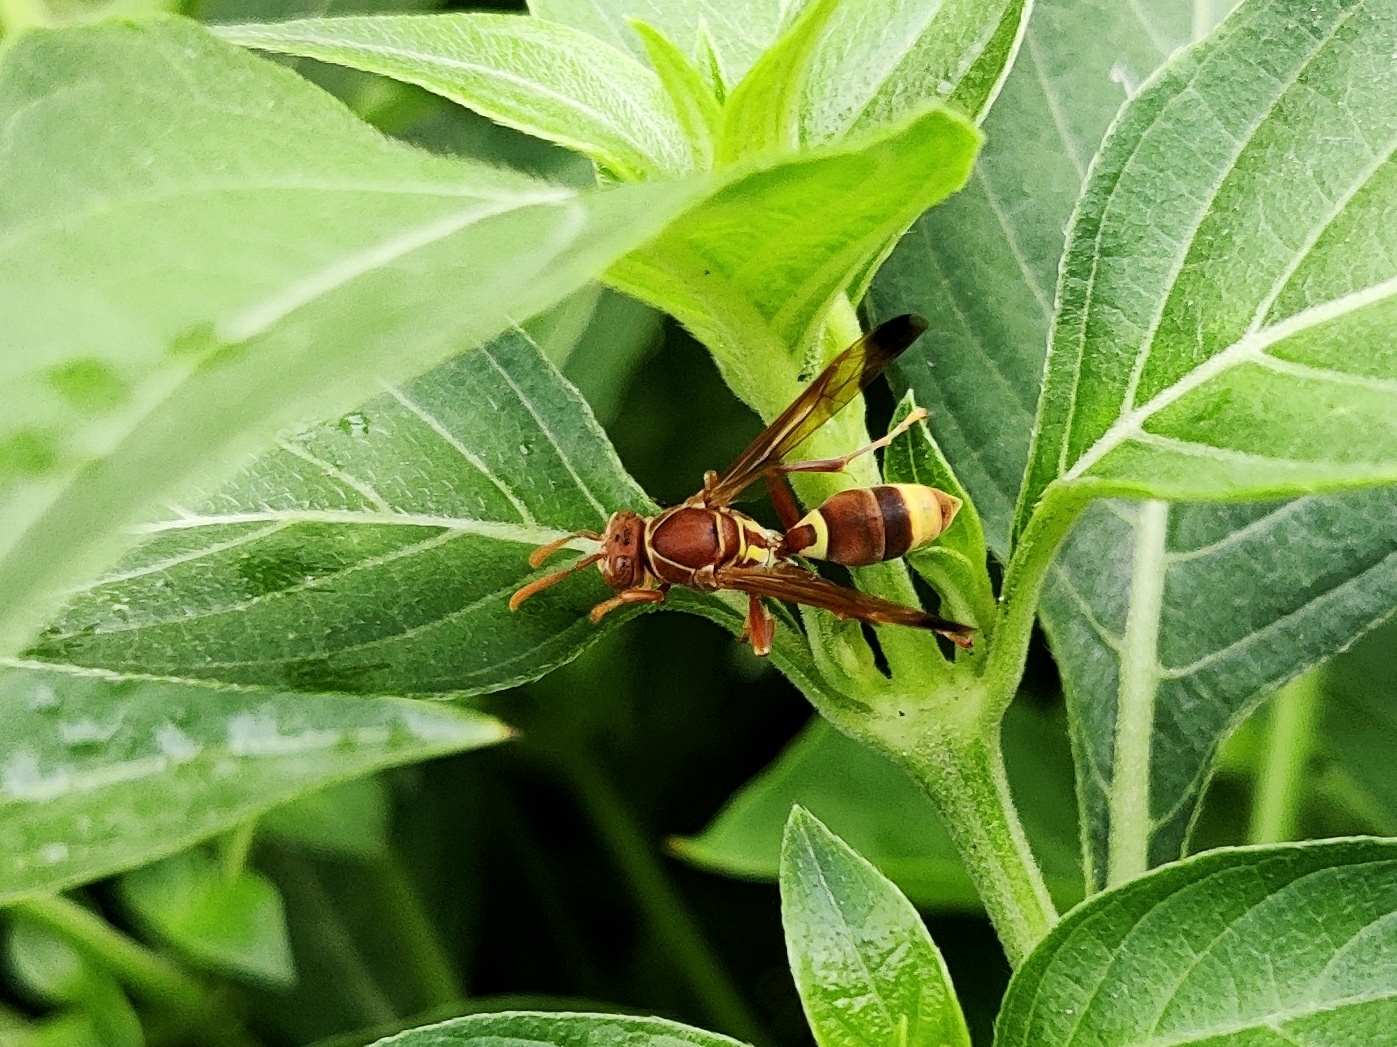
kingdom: Animalia
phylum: Arthropoda
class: Insecta
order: Hymenoptera
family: Eumenidae
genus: Polistes
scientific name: Polistes stigma
